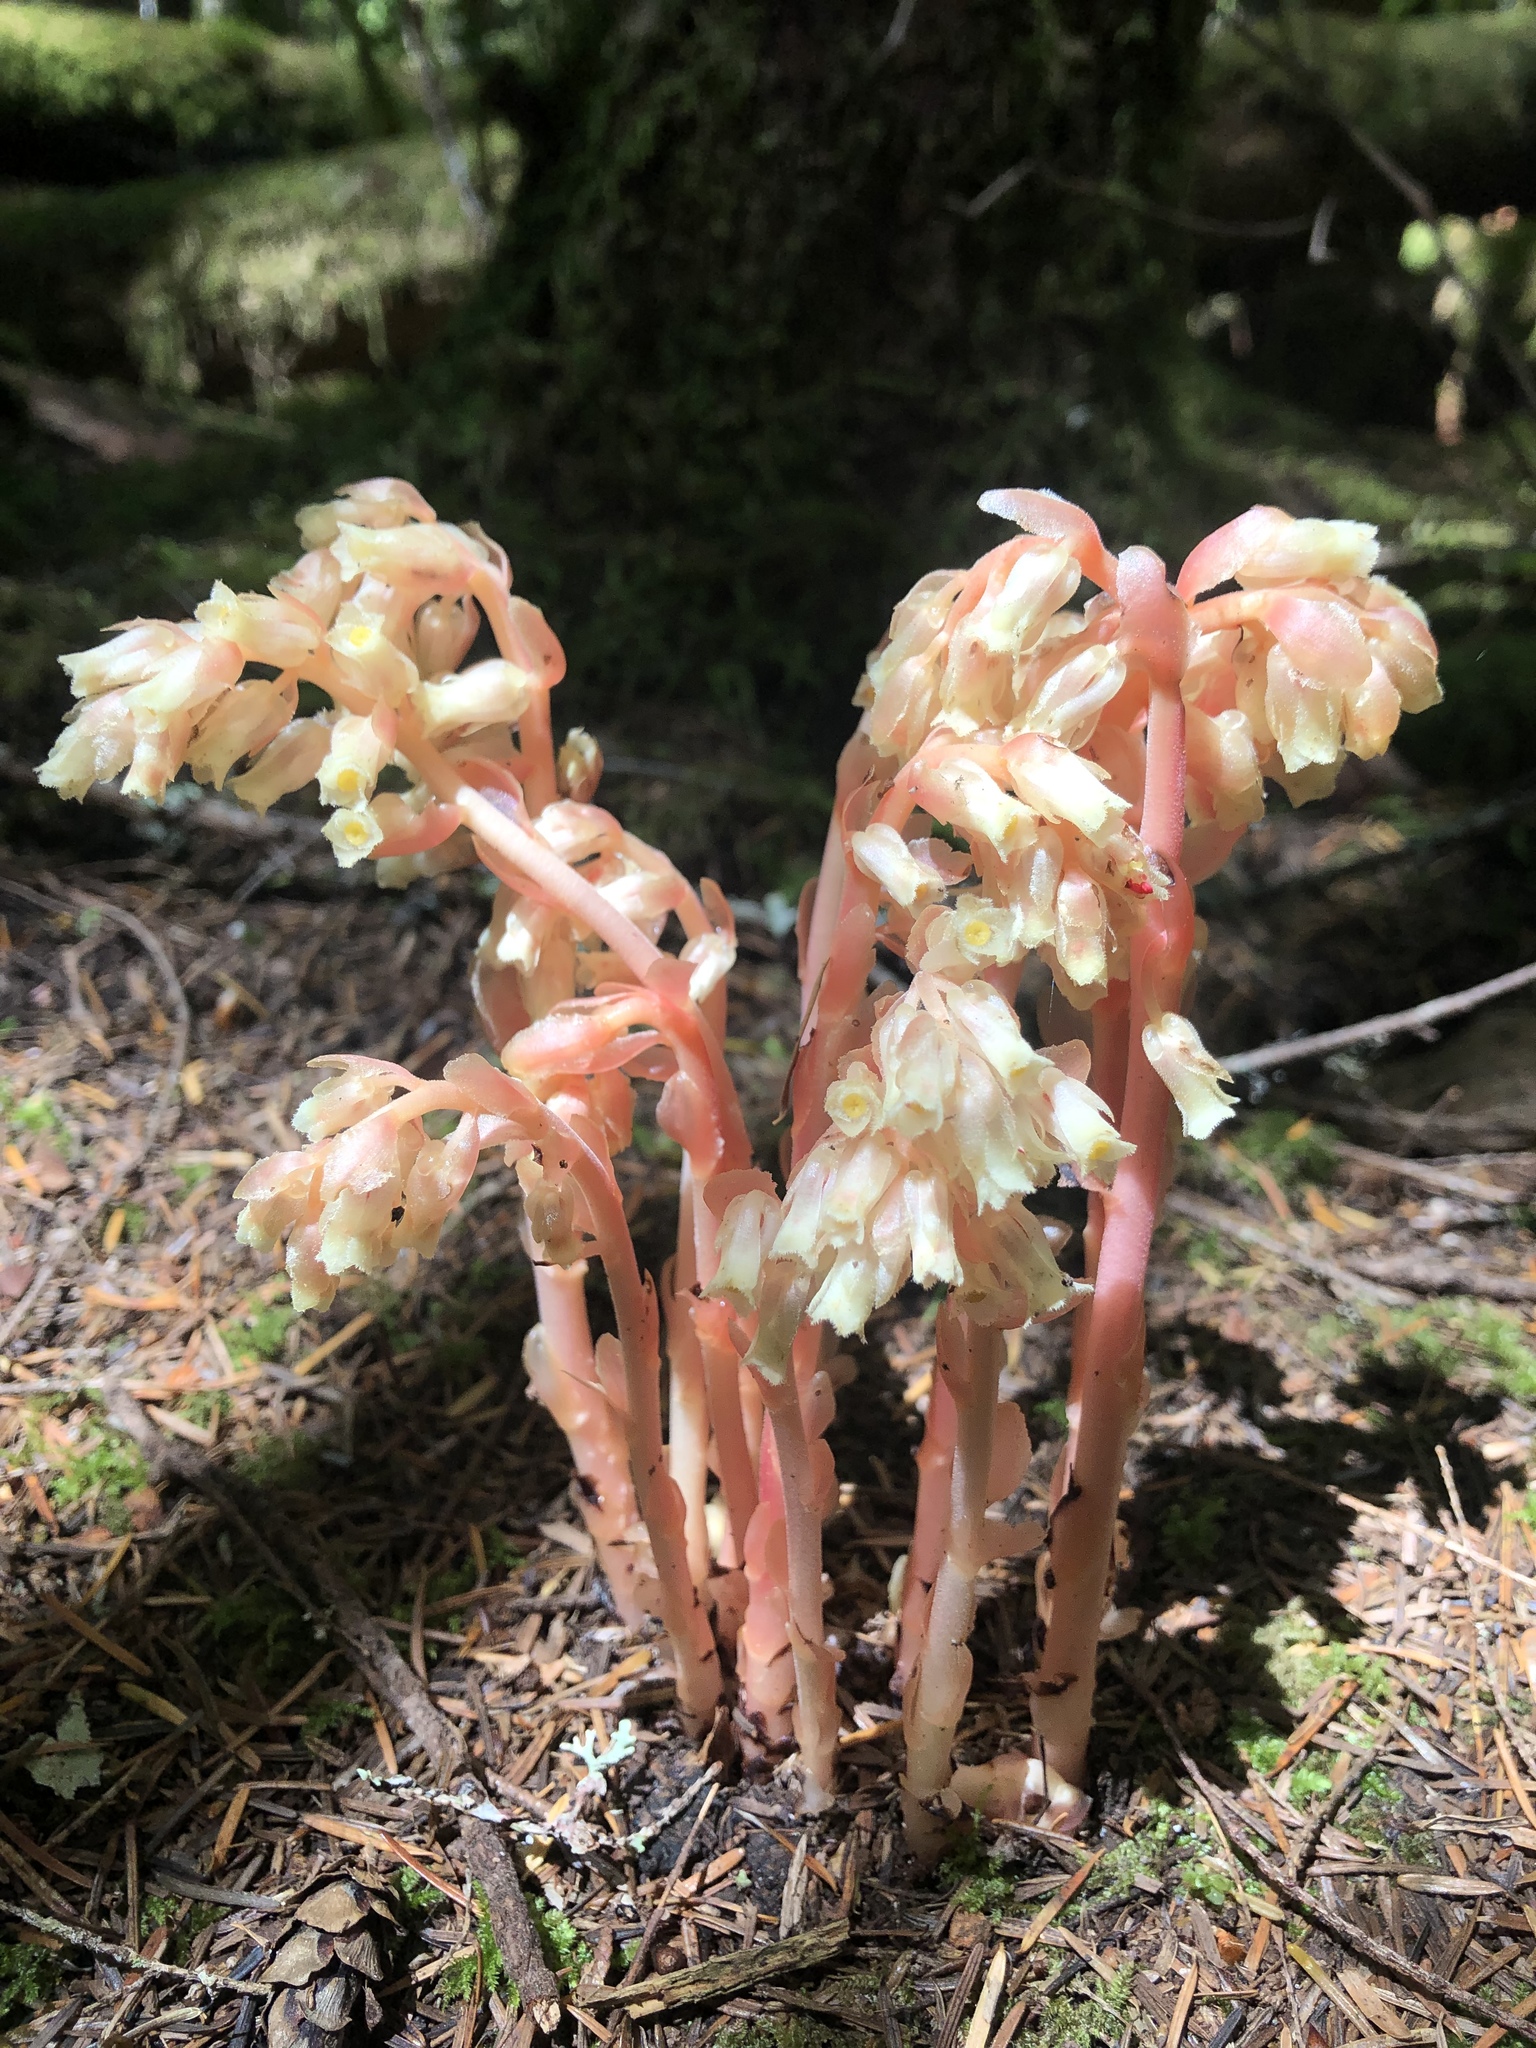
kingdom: Plantae
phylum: Tracheophyta
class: Magnoliopsida
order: Ericales
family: Ericaceae
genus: Hypopitys
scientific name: Hypopitys monotropa
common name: Yellow bird's-nest
